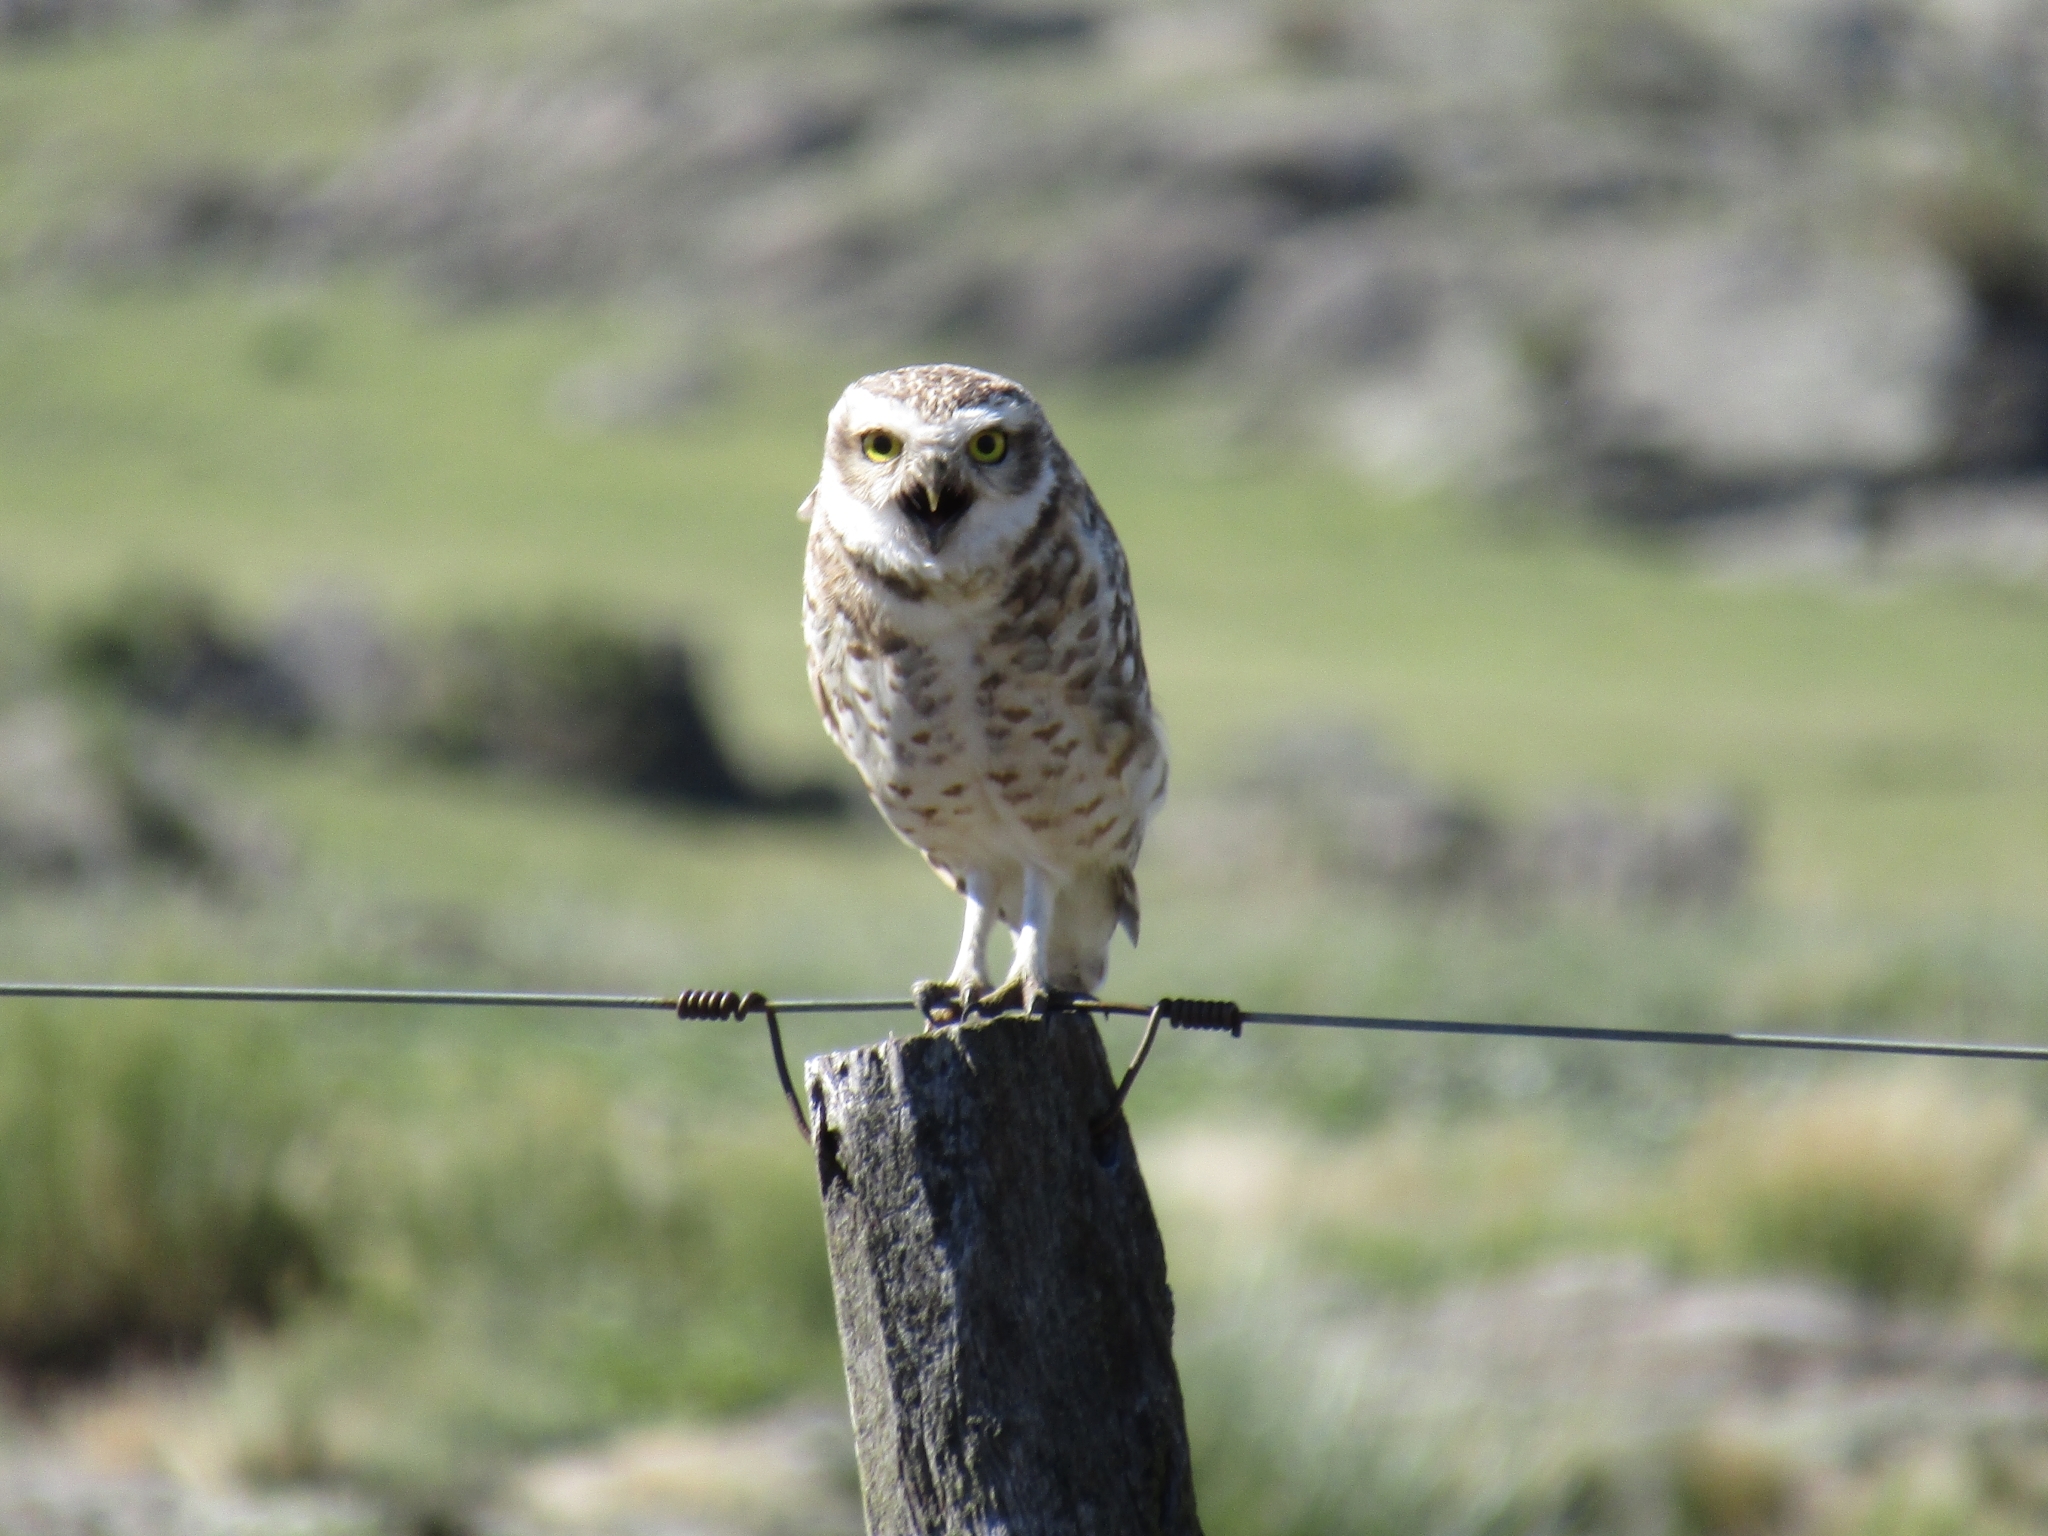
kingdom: Animalia
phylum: Chordata
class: Aves
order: Strigiformes
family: Strigidae
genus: Athene
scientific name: Athene cunicularia
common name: Burrowing owl
